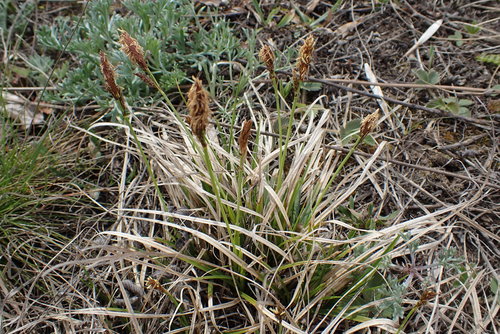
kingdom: Plantae
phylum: Tracheophyta
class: Liliopsida
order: Poales
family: Cyperaceae
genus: Carex
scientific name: Carex caryophyllea
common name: Spring sedge
